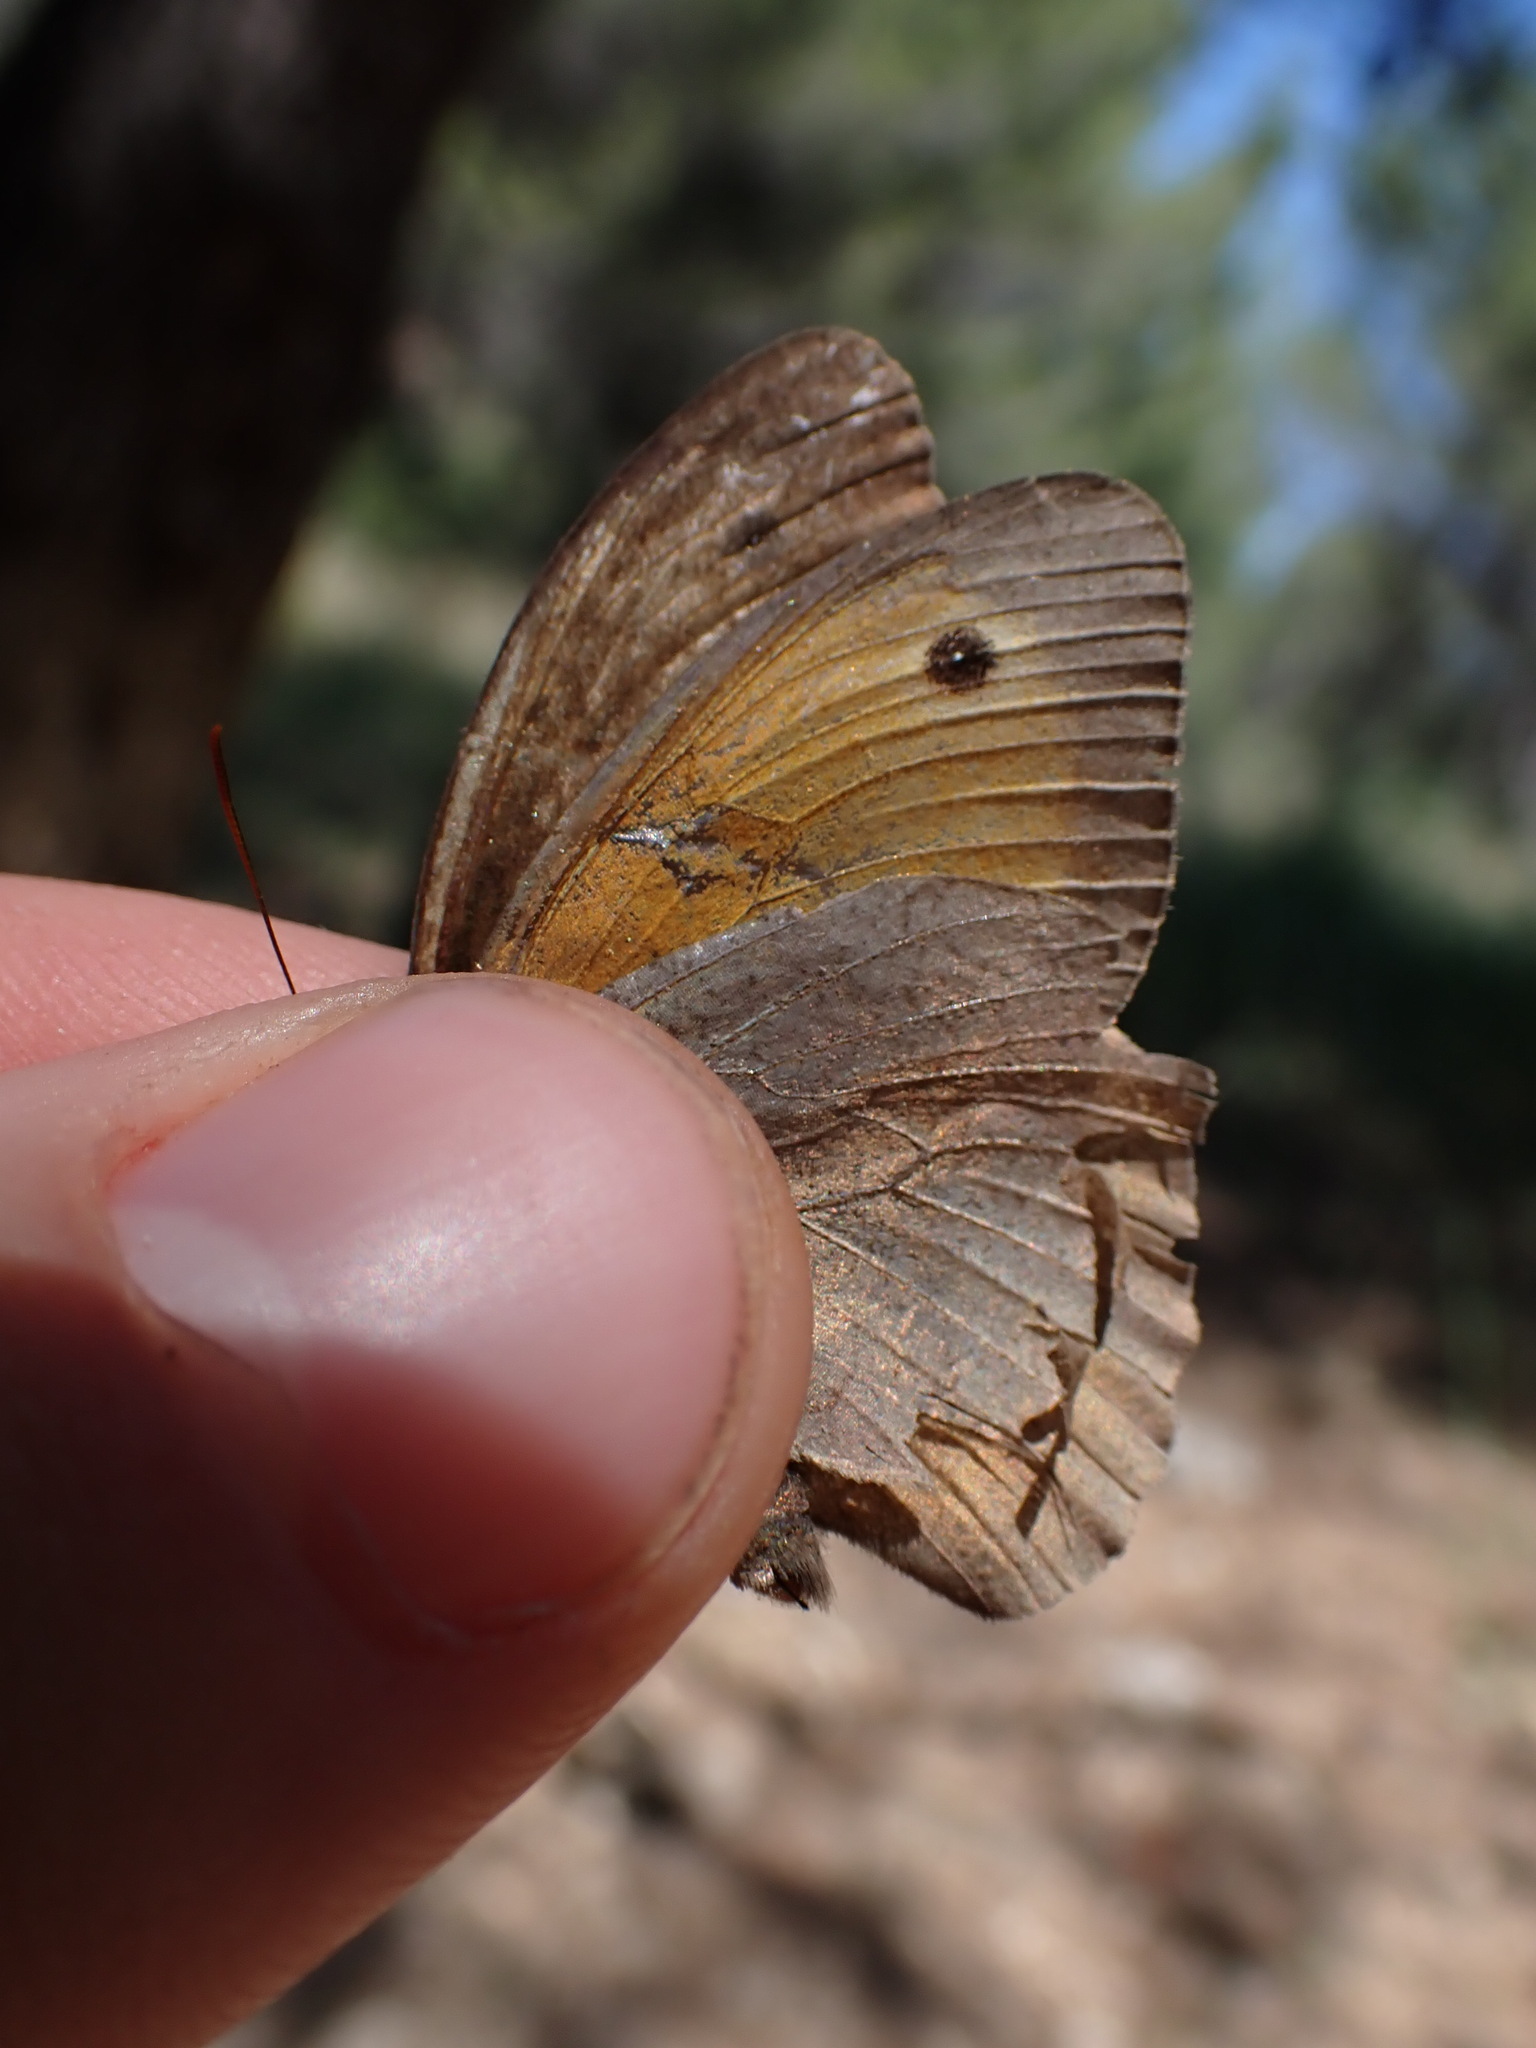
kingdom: Animalia
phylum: Arthropoda
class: Insecta
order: Lepidoptera
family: Nymphalidae
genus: Maniola
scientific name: Maniola jurtina
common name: Meadow brown
